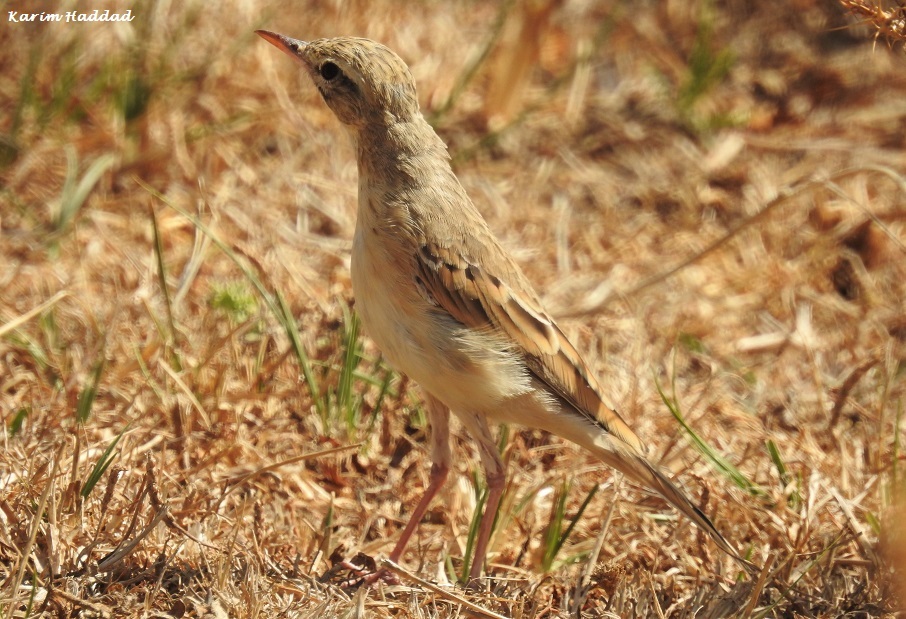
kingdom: Animalia
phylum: Chordata
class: Aves
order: Passeriformes
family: Motacillidae
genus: Anthus
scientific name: Anthus campestris
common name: Tawny pipit
